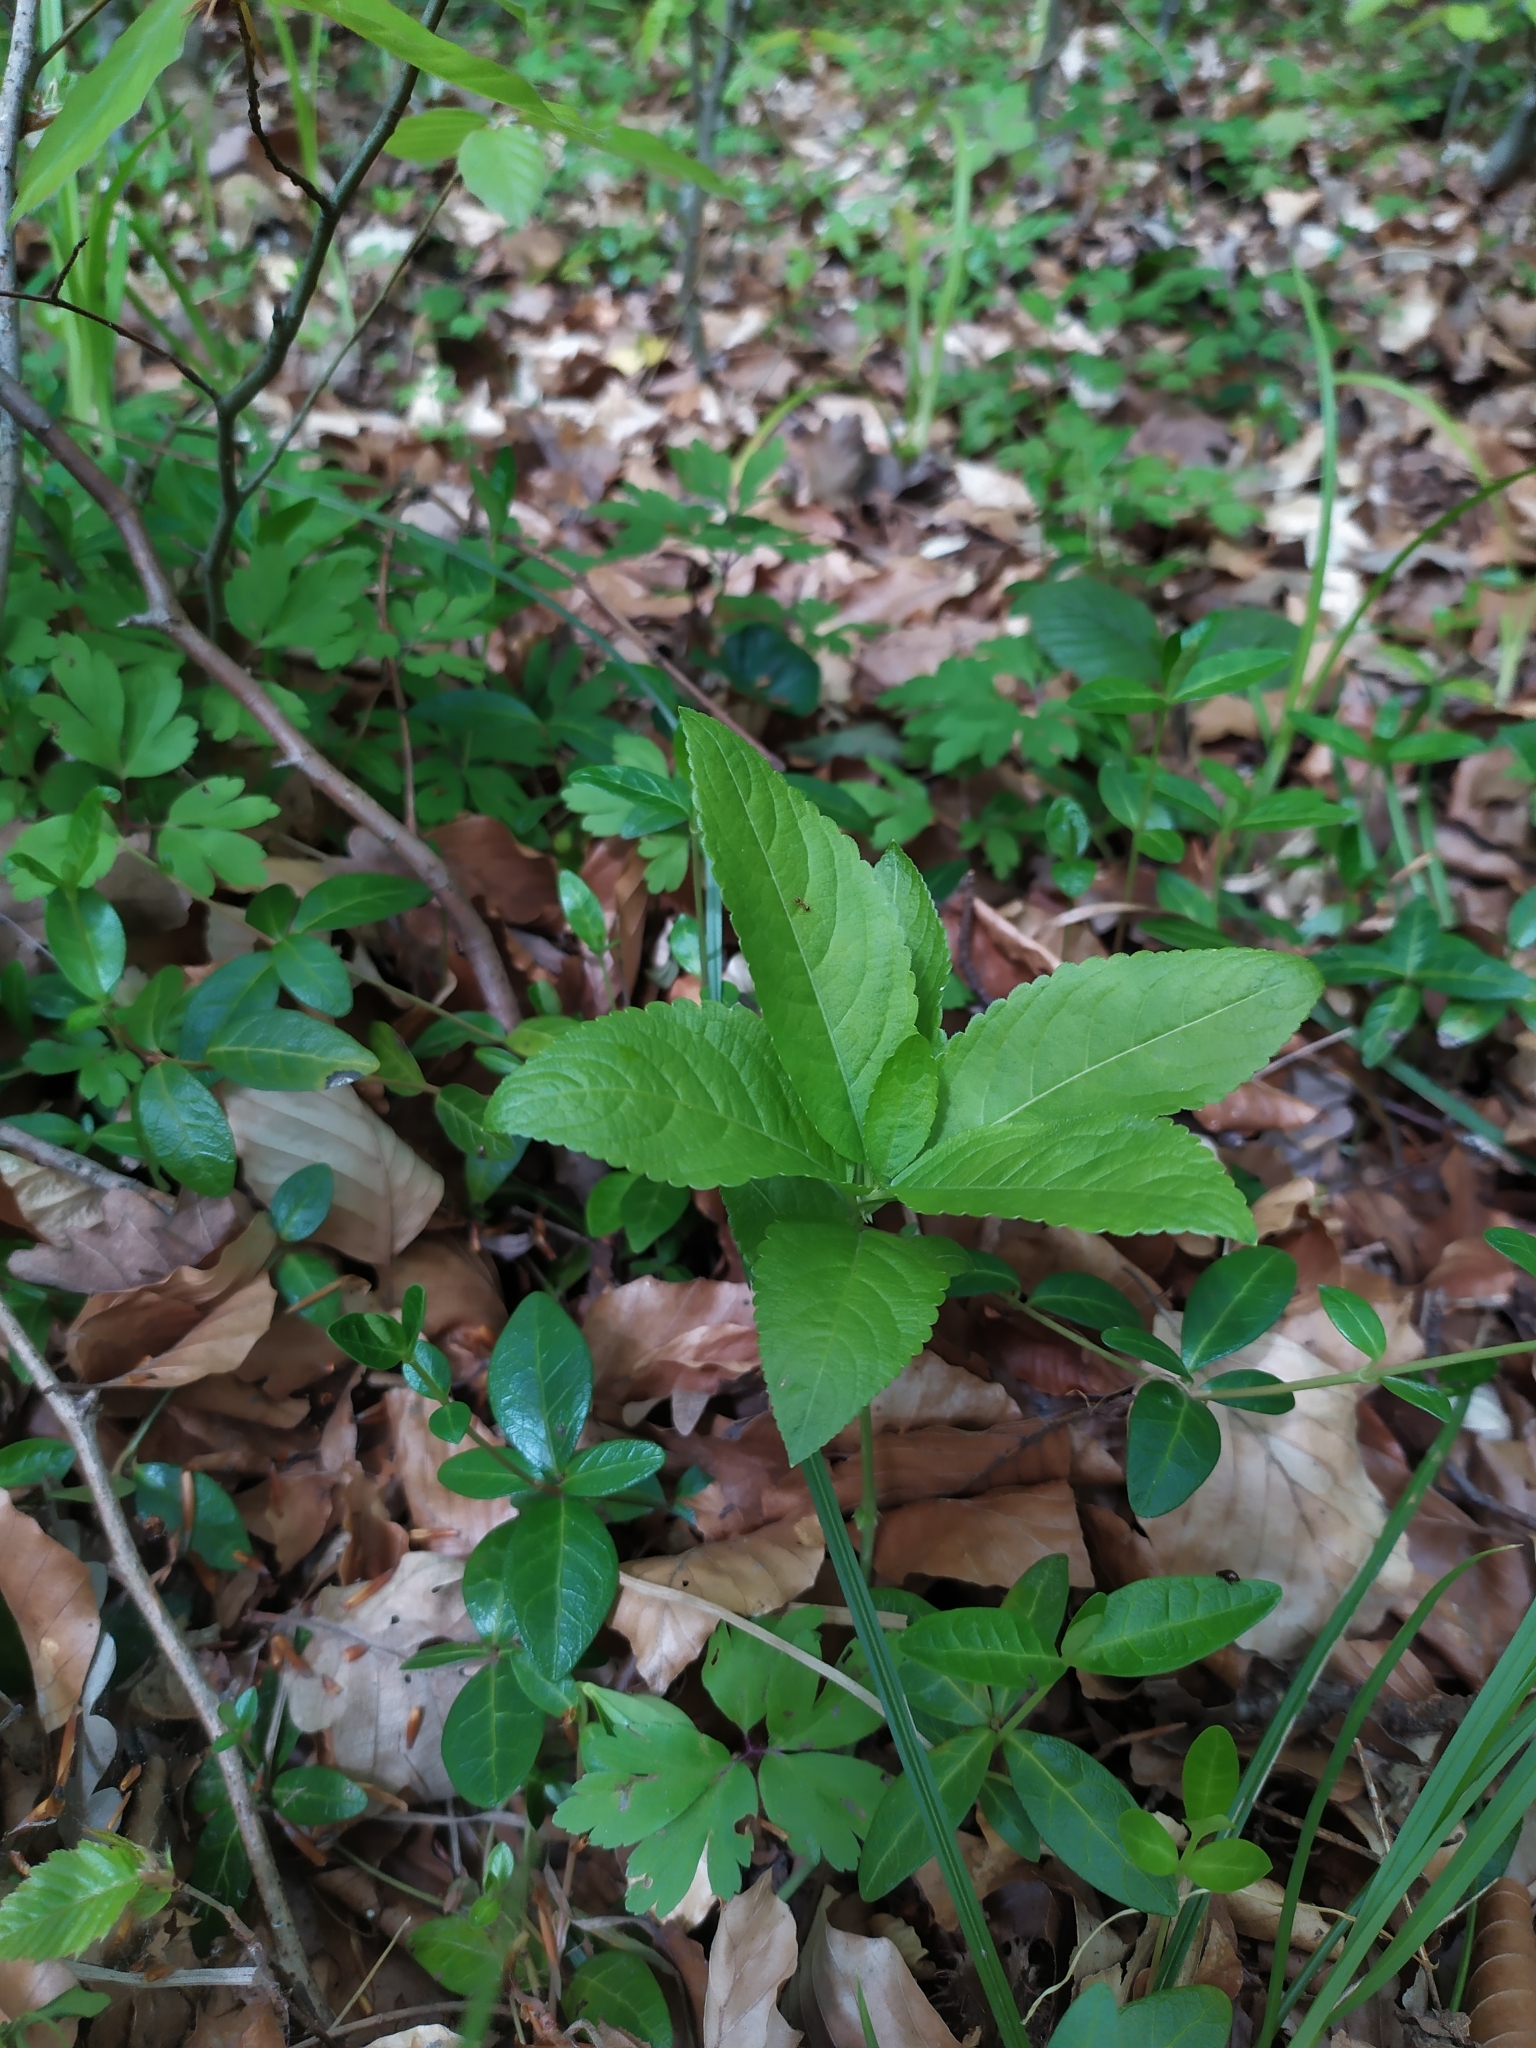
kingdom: Plantae
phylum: Tracheophyta
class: Magnoliopsida
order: Malpighiales
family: Euphorbiaceae
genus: Mercurialis
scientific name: Mercurialis perennis
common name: Dog mercury
